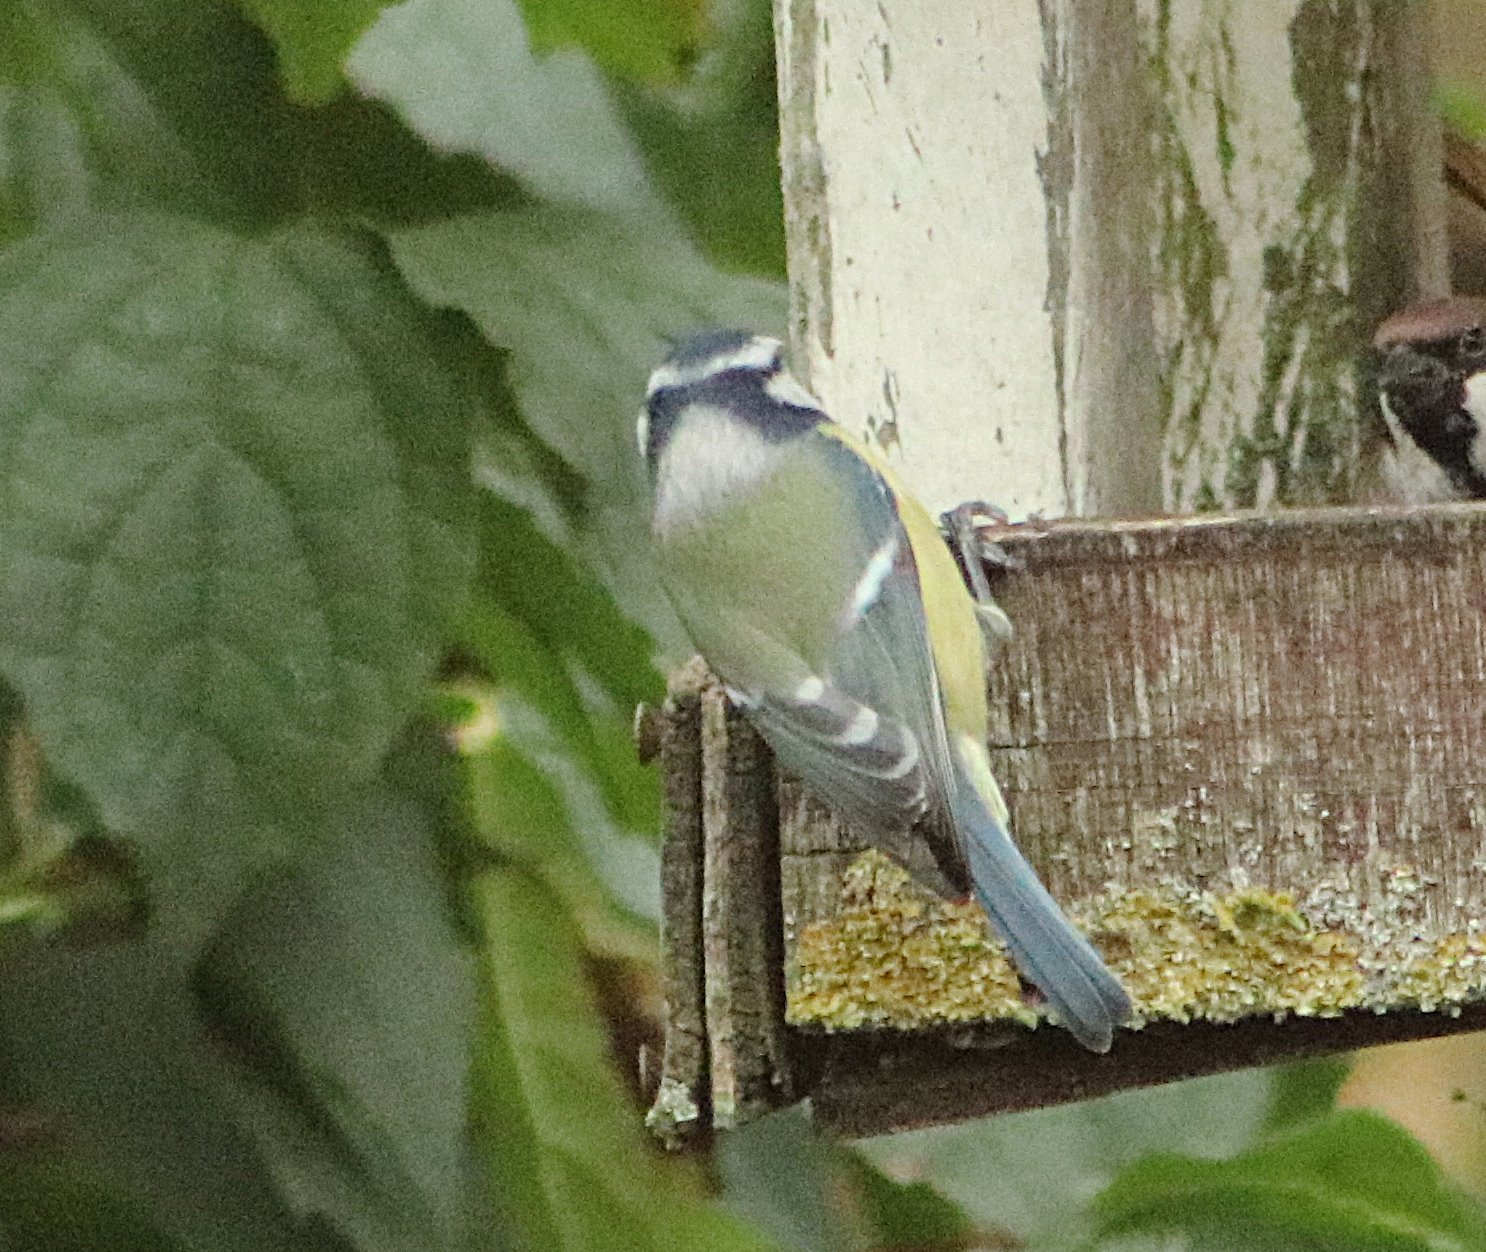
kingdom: Animalia
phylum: Chordata
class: Aves
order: Passeriformes
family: Paridae
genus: Cyanistes
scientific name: Cyanistes caeruleus
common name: Eurasian blue tit
